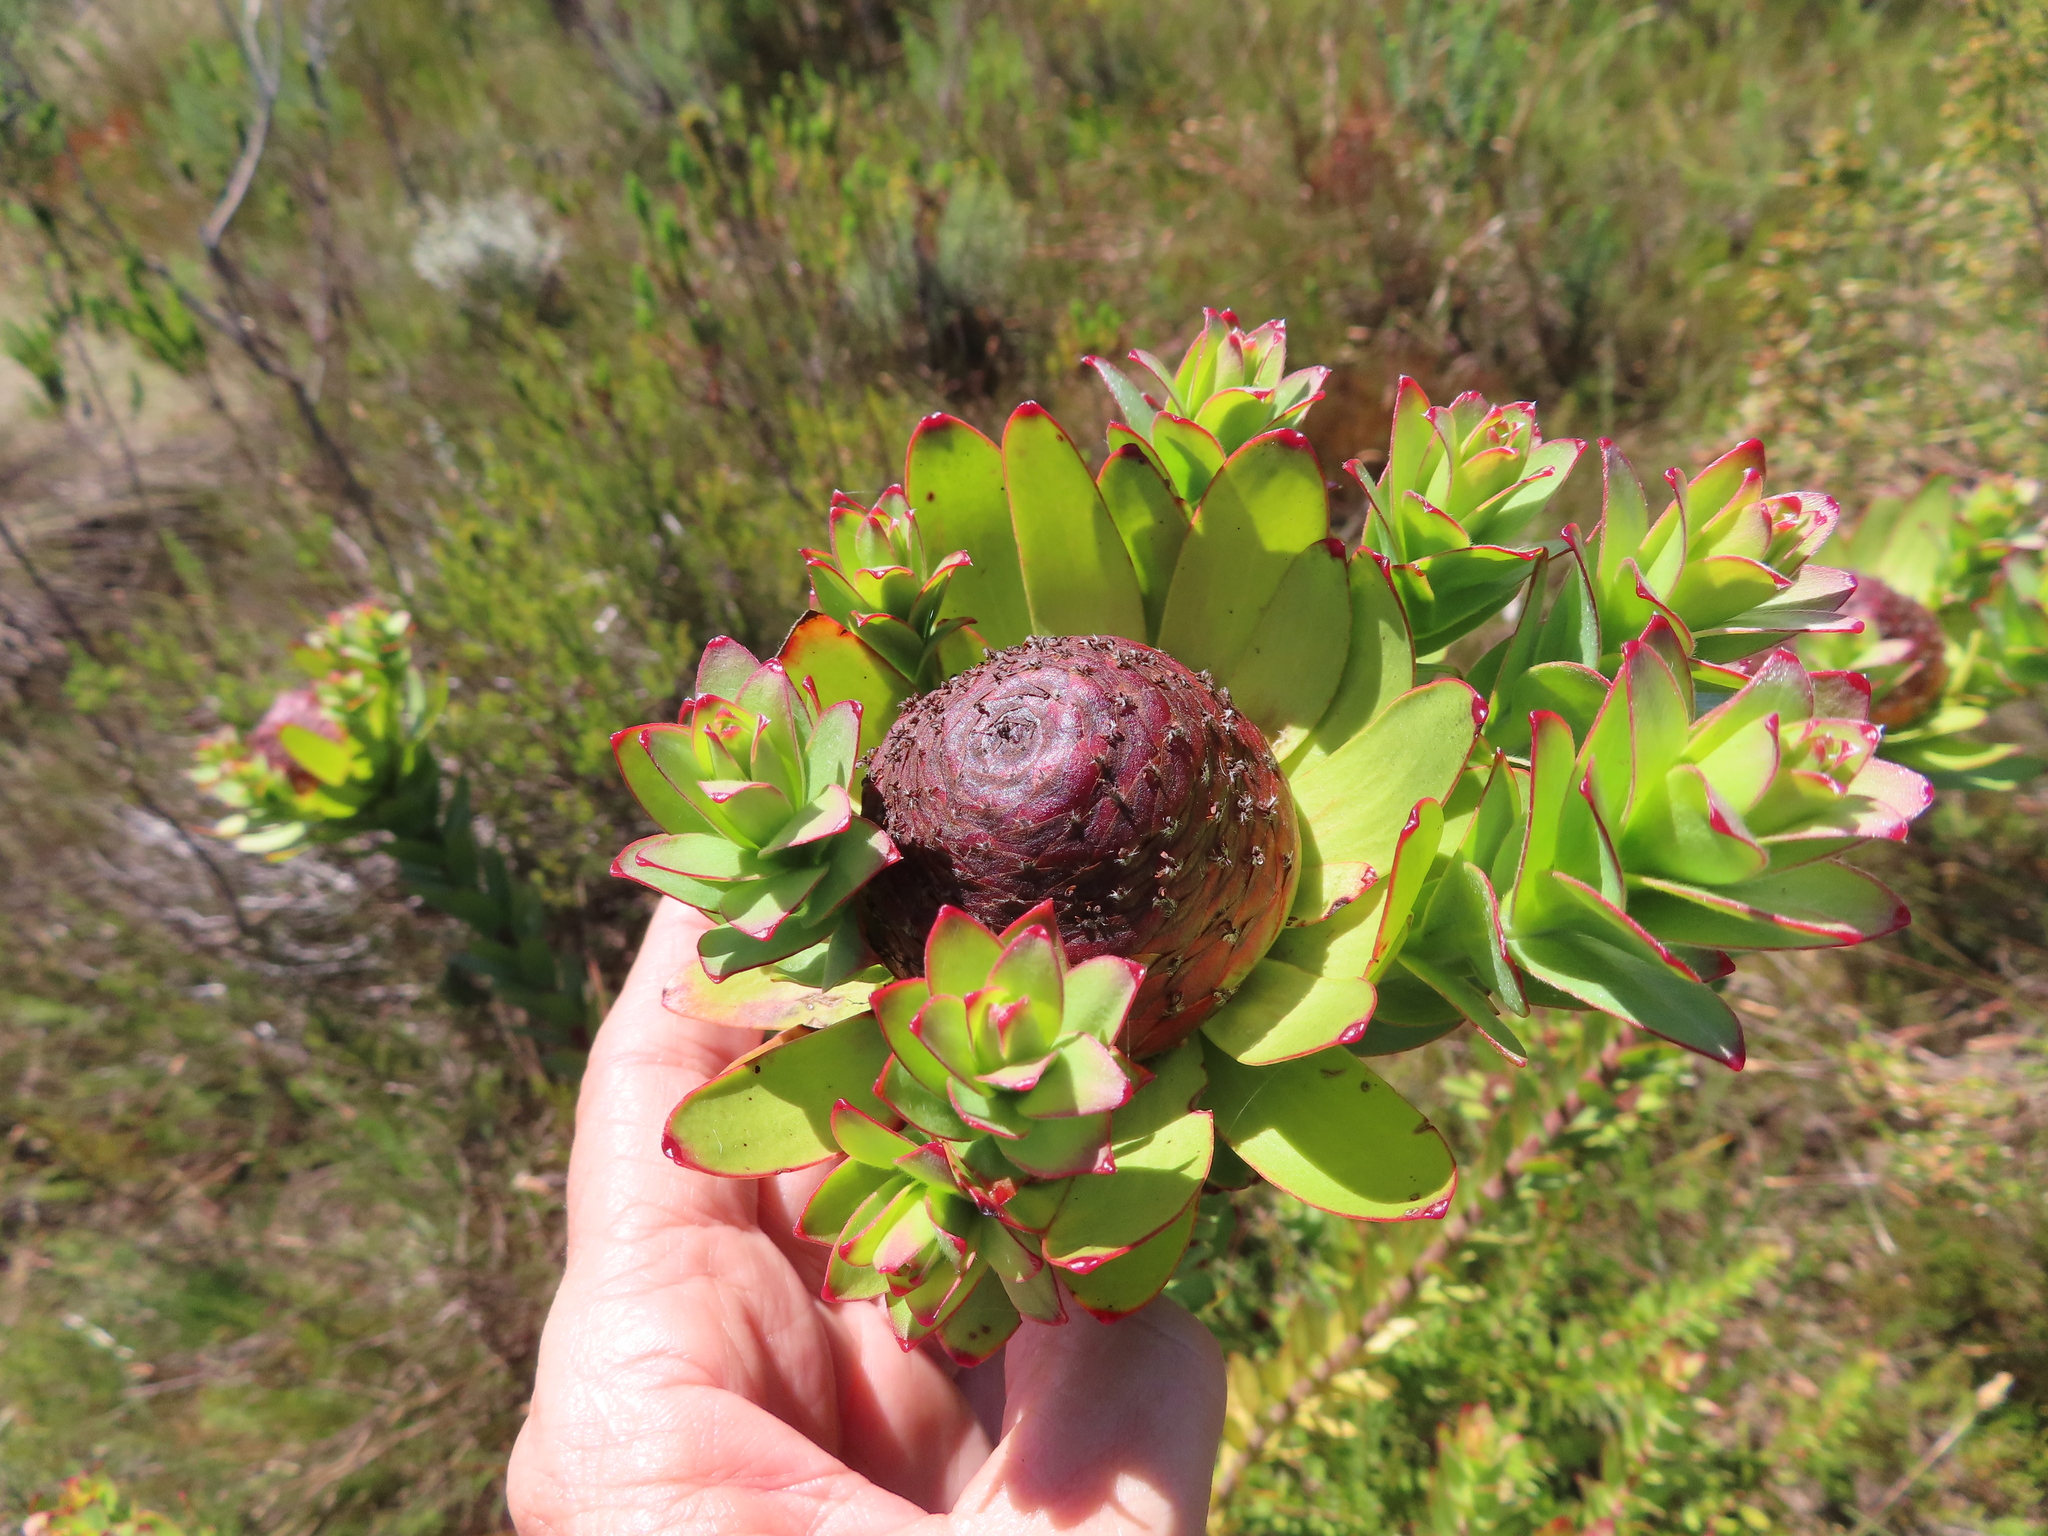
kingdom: Plantae
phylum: Tracheophyta
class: Magnoliopsida
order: Proteales
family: Proteaceae
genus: Leucadendron
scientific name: Leucadendron elimense
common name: Elim conebush
